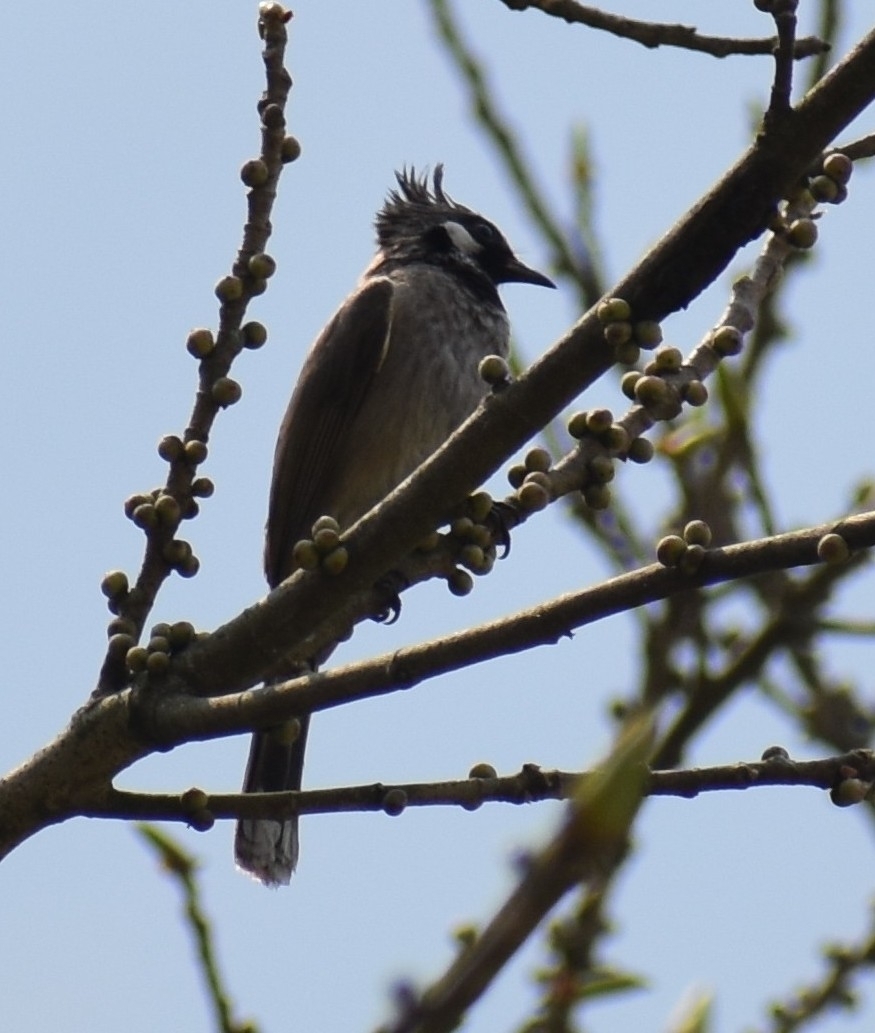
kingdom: Animalia
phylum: Chordata
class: Aves
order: Passeriformes
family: Pycnonotidae
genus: Pycnonotus
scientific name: Pycnonotus leucogenys
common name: Himalayan bulbul
